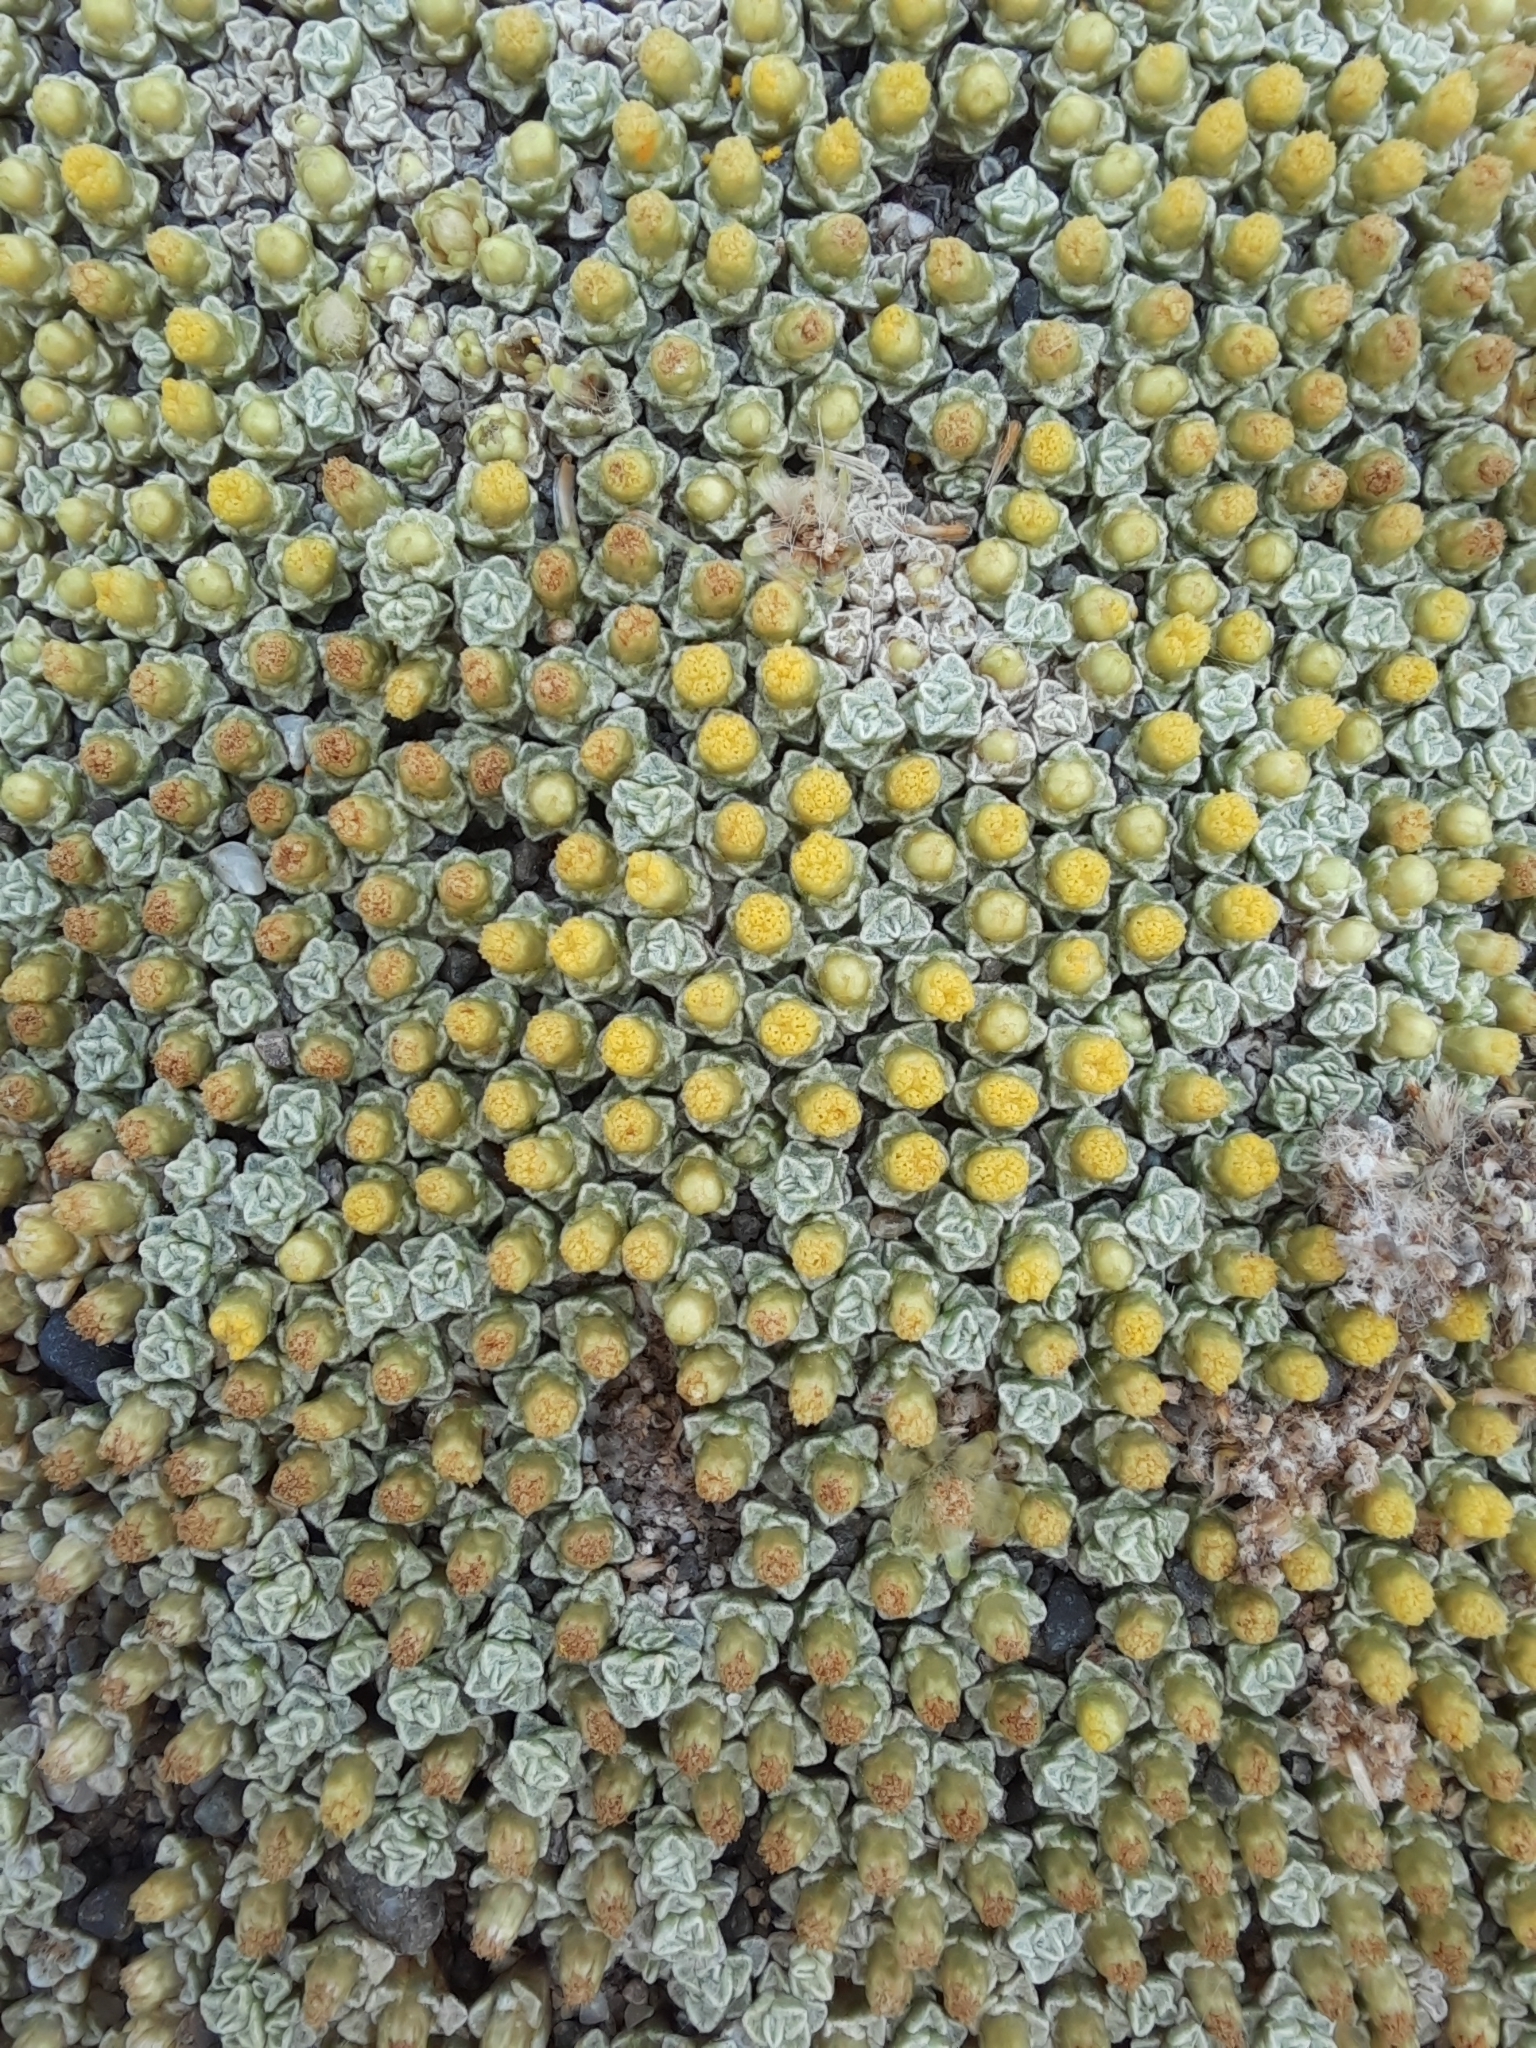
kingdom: Plantae
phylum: Tracheophyta
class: Magnoliopsida
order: Asterales
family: Asteraceae
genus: Raoulia
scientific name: Raoulia australis
